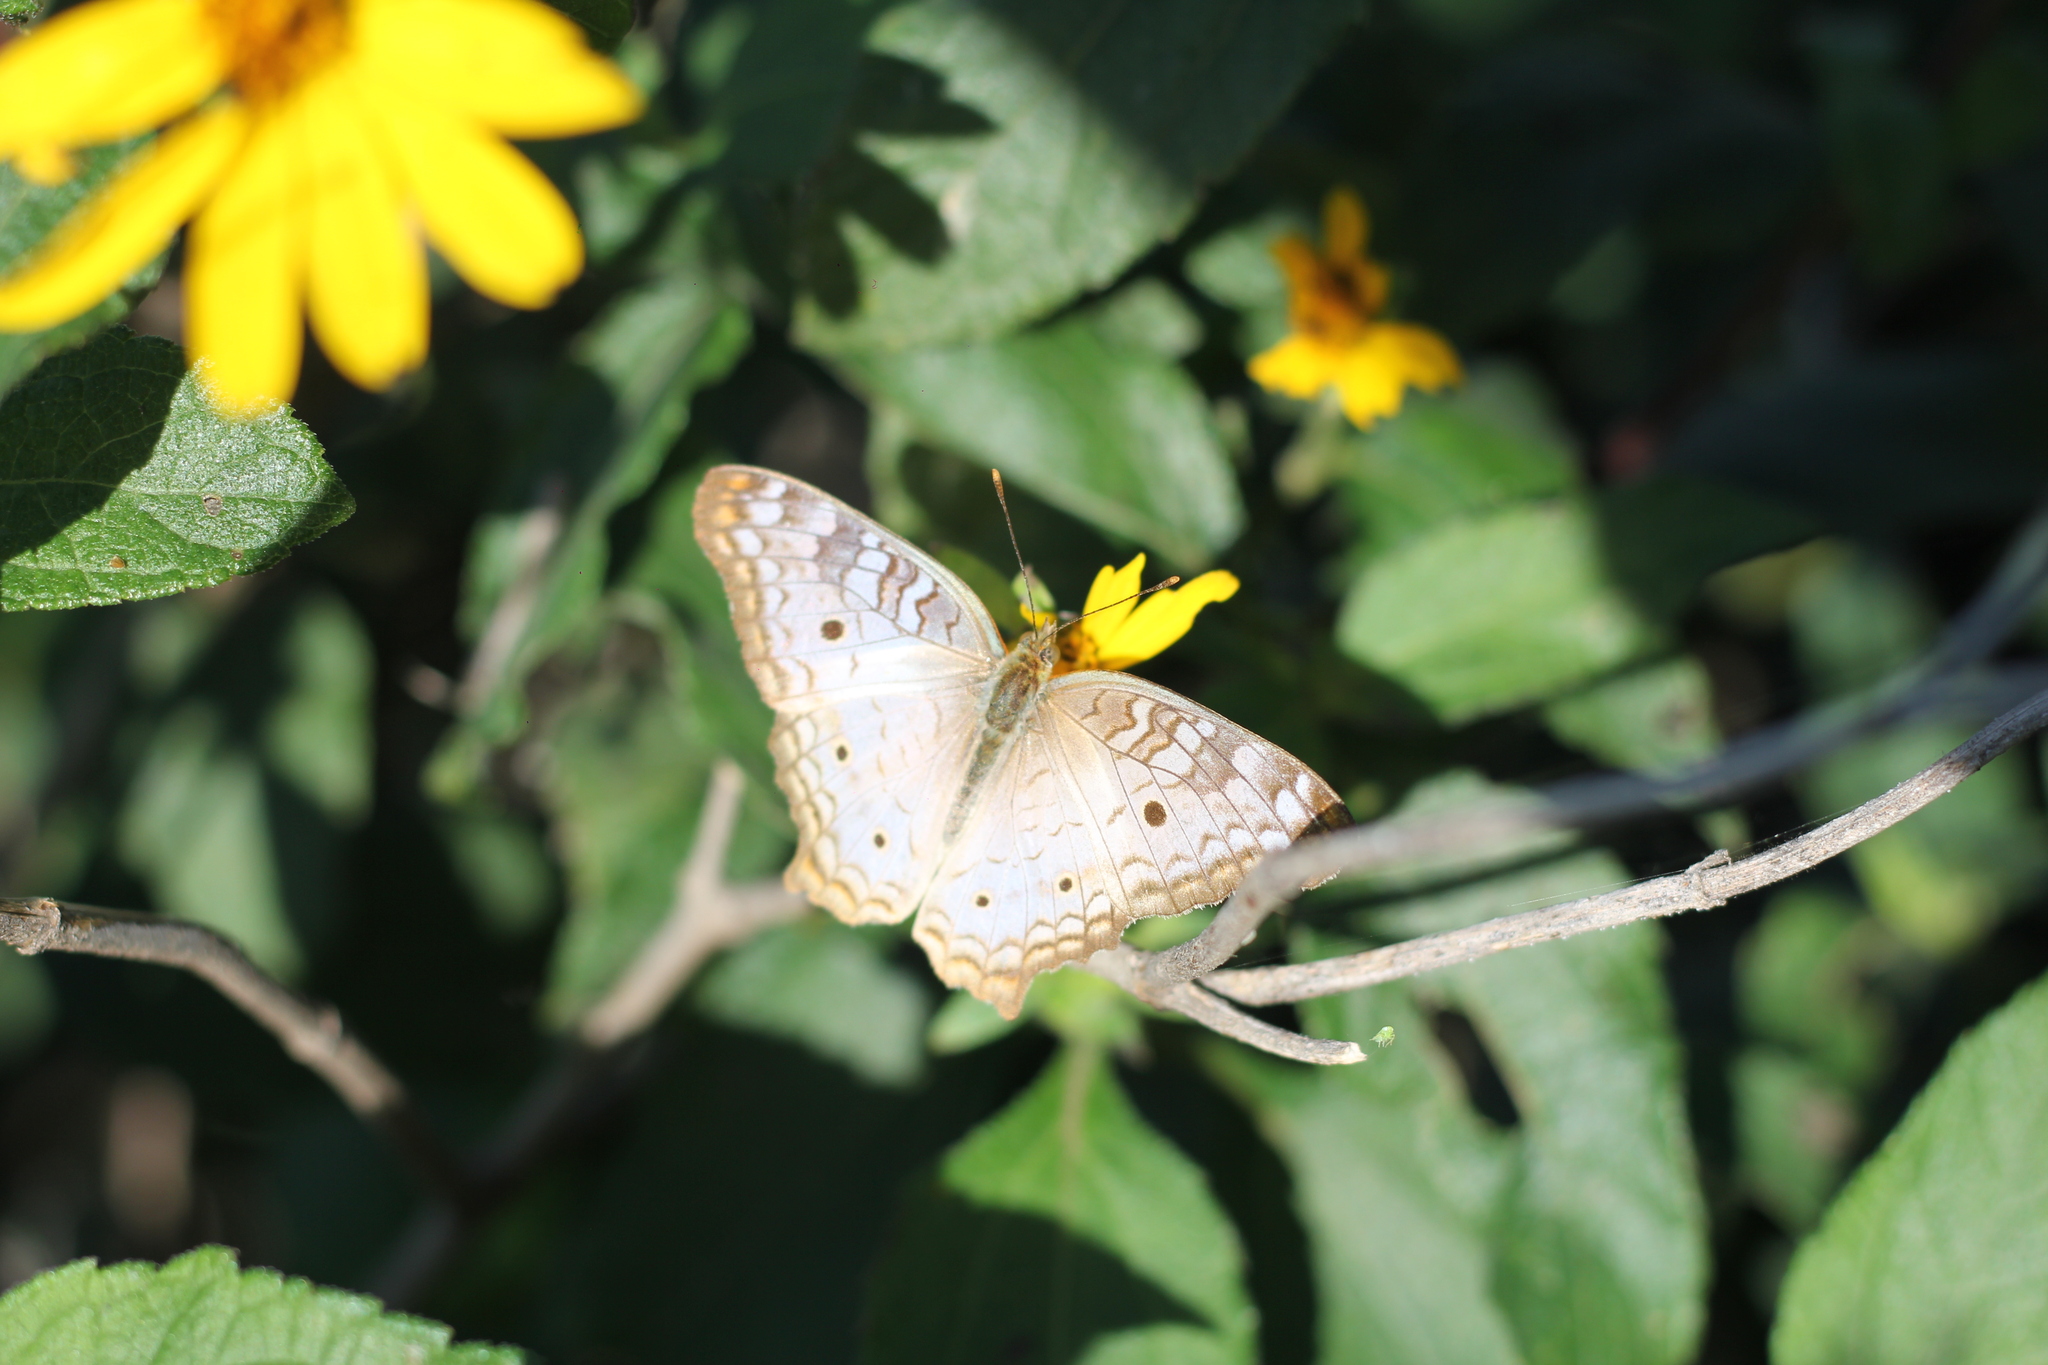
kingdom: Animalia
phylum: Arthropoda
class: Insecta
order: Lepidoptera
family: Nymphalidae
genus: Anartia
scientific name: Anartia jatrophae
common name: White peacock
